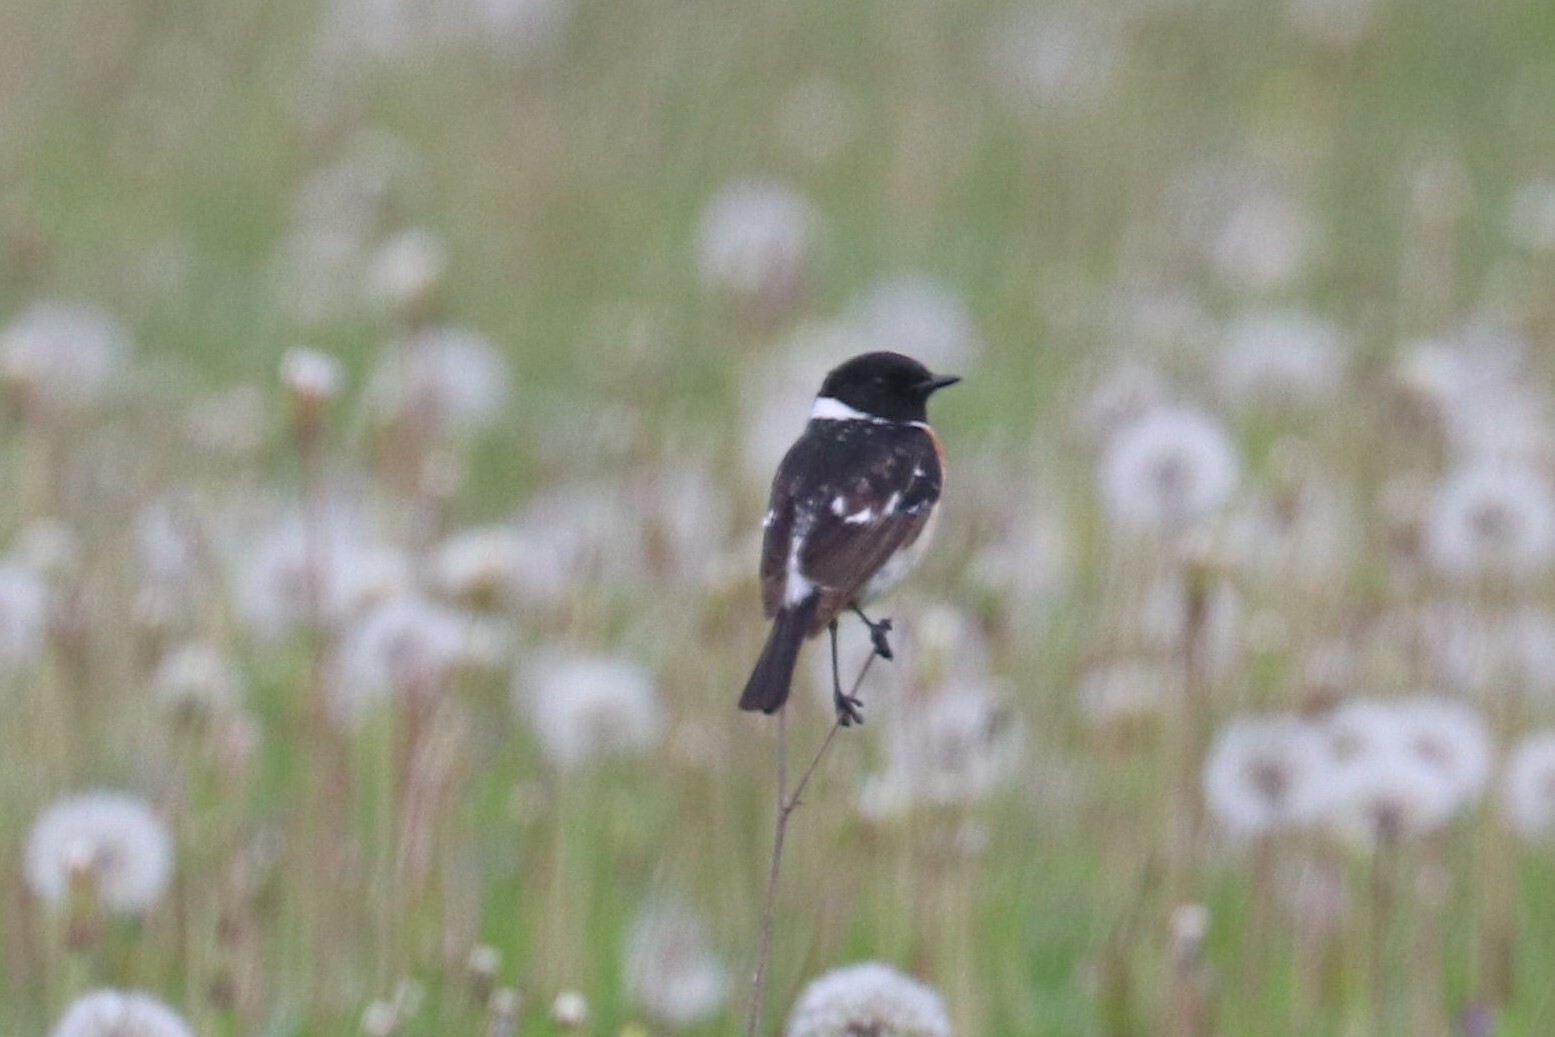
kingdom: Animalia
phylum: Chordata
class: Aves
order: Passeriformes
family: Muscicapidae
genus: Saxicola
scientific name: Saxicola maurus
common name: Siberian stonechat
